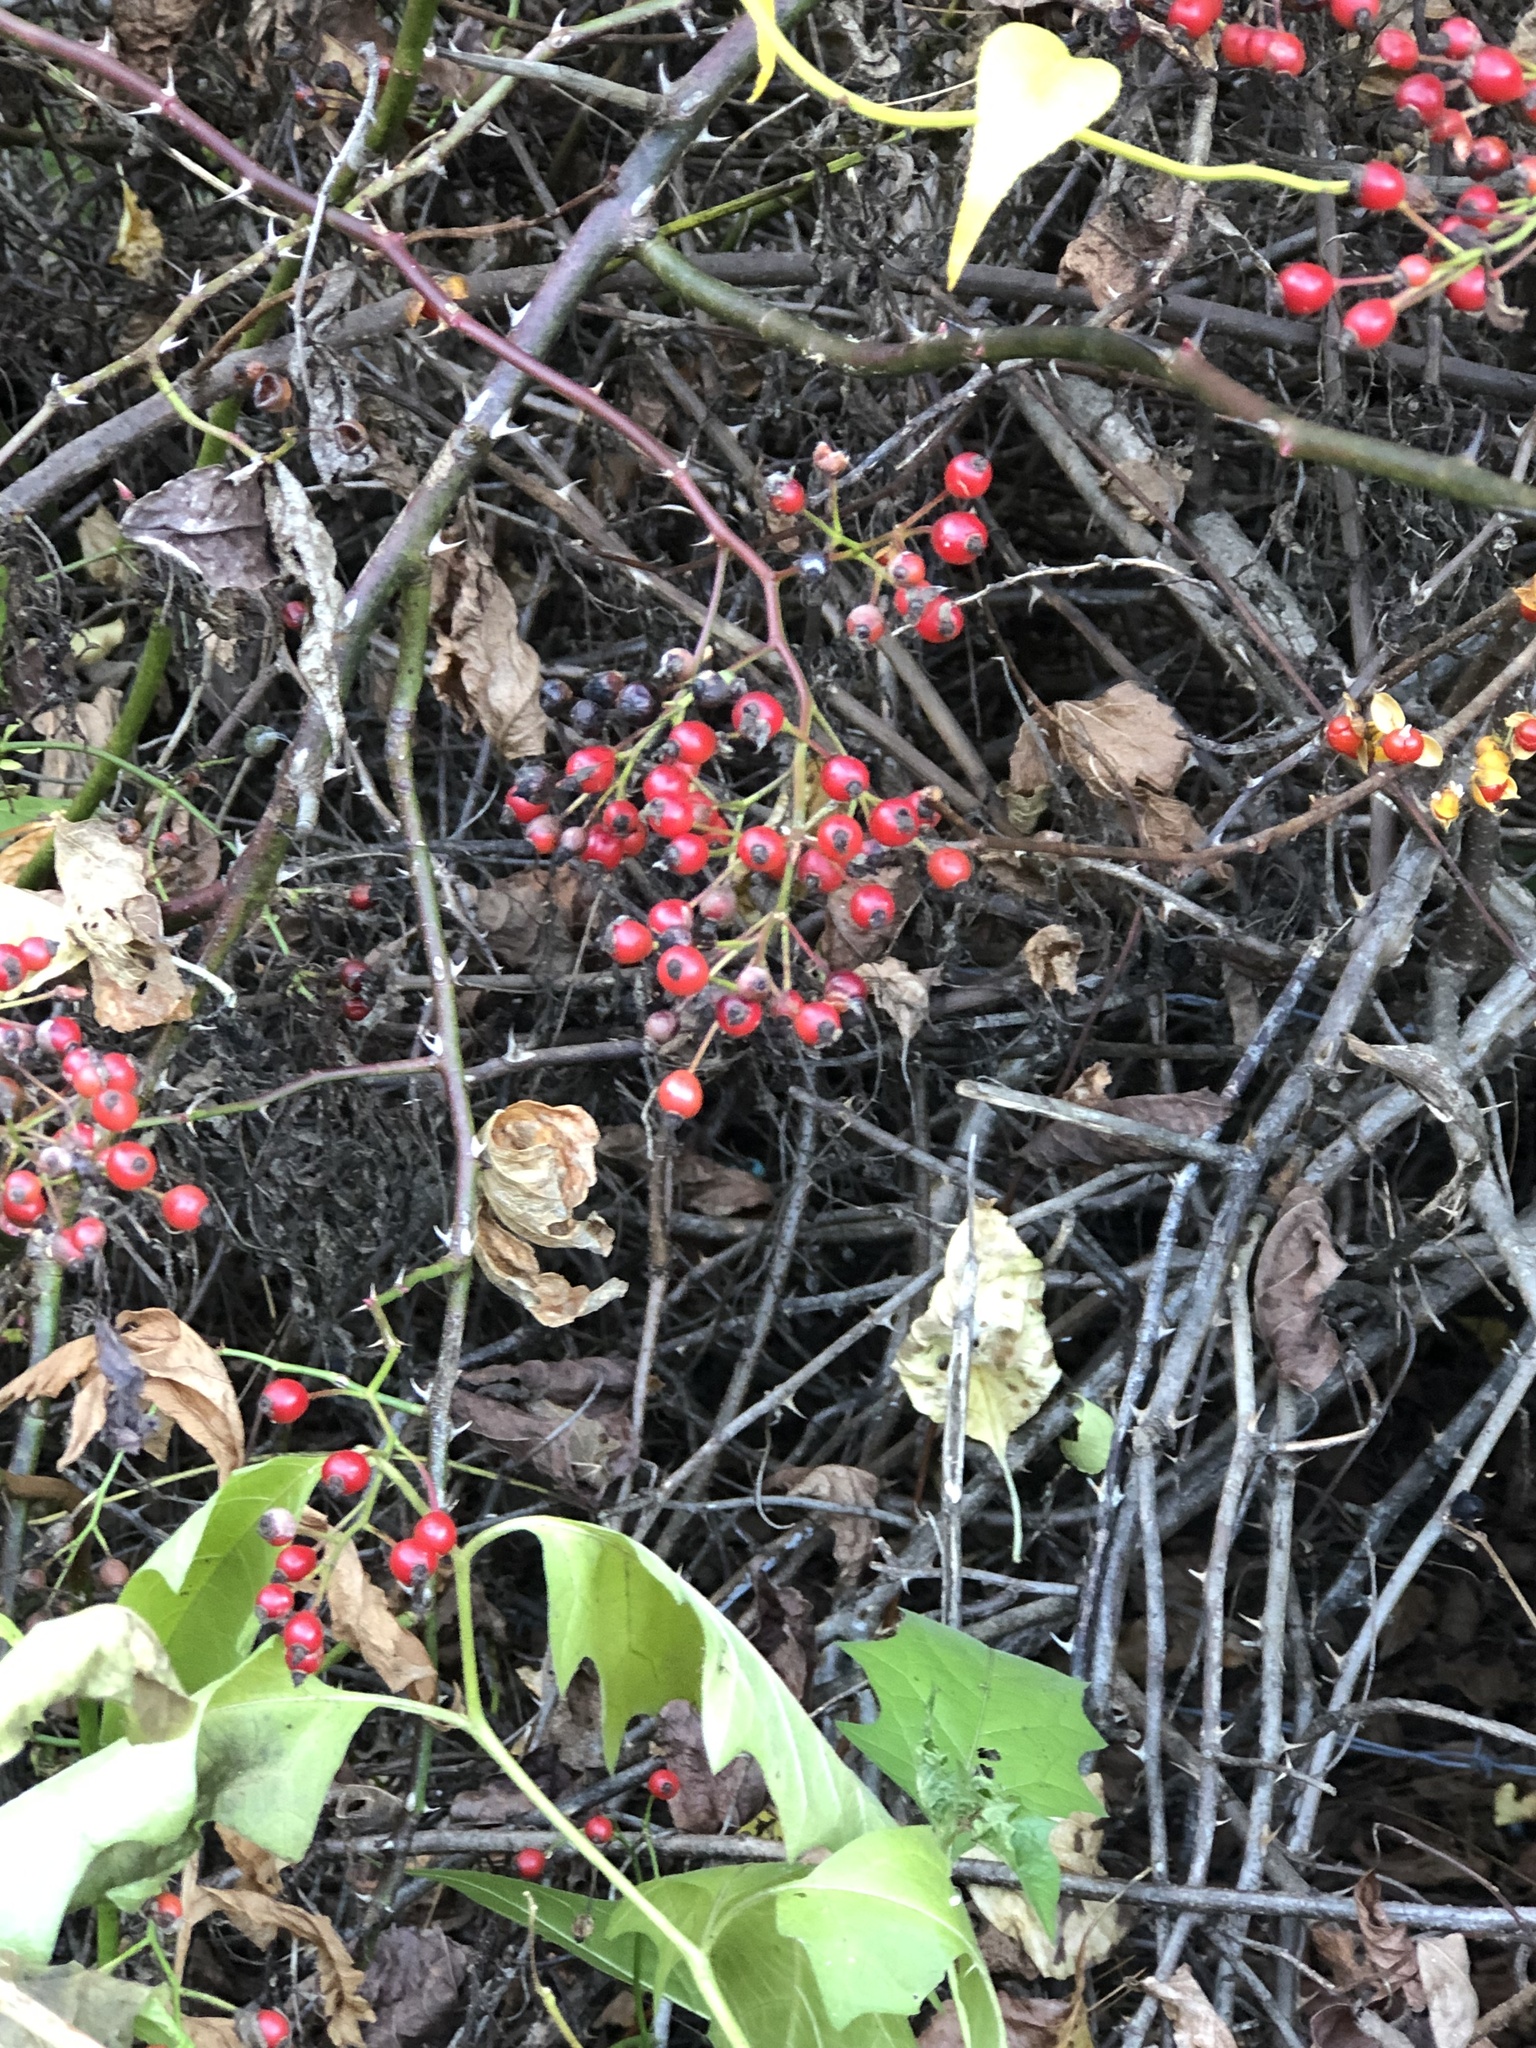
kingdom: Plantae
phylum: Tracheophyta
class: Magnoliopsida
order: Rosales
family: Rosaceae
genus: Rosa
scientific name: Rosa multiflora
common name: Multiflora rose
